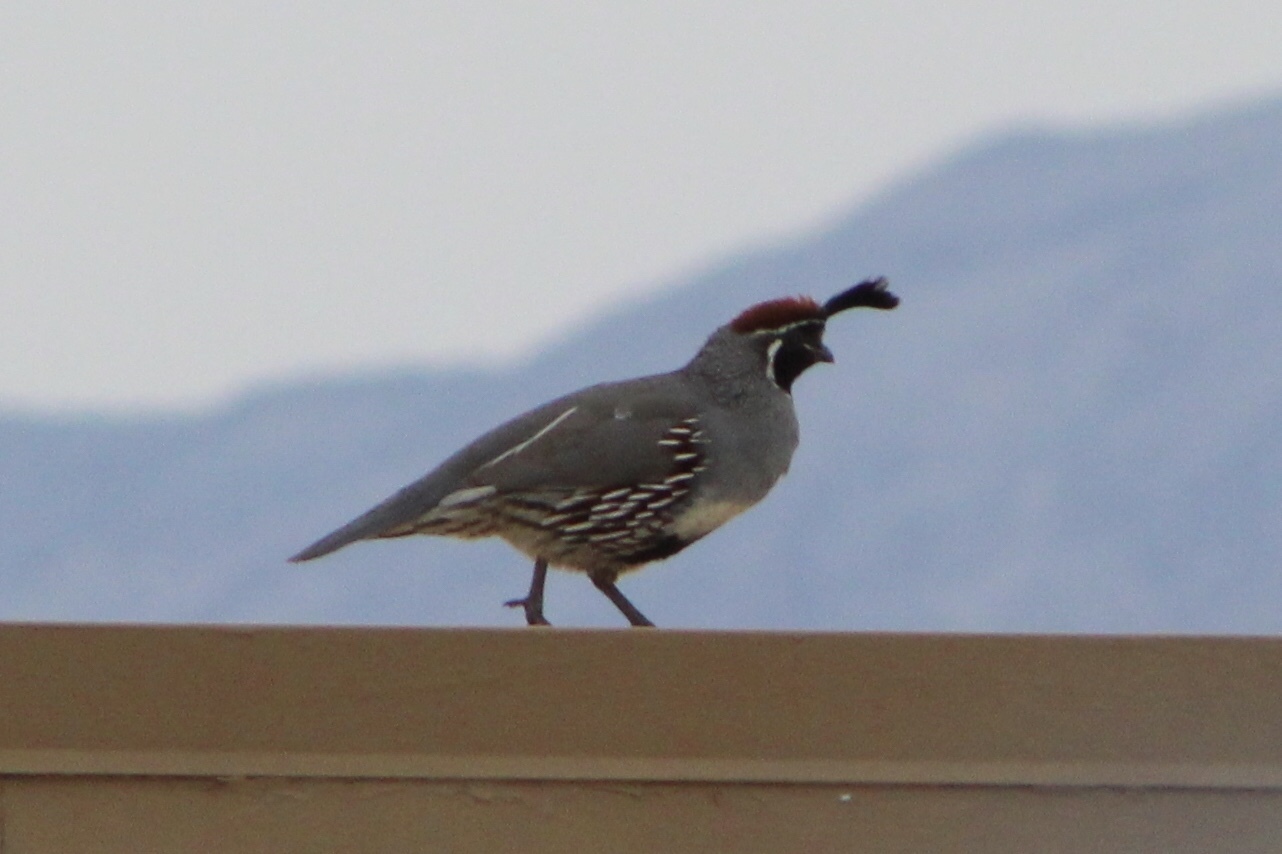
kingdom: Animalia
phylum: Chordata
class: Aves
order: Galliformes
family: Odontophoridae
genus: Callipepla
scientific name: Callipepla gambelii
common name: Gambel's quail
